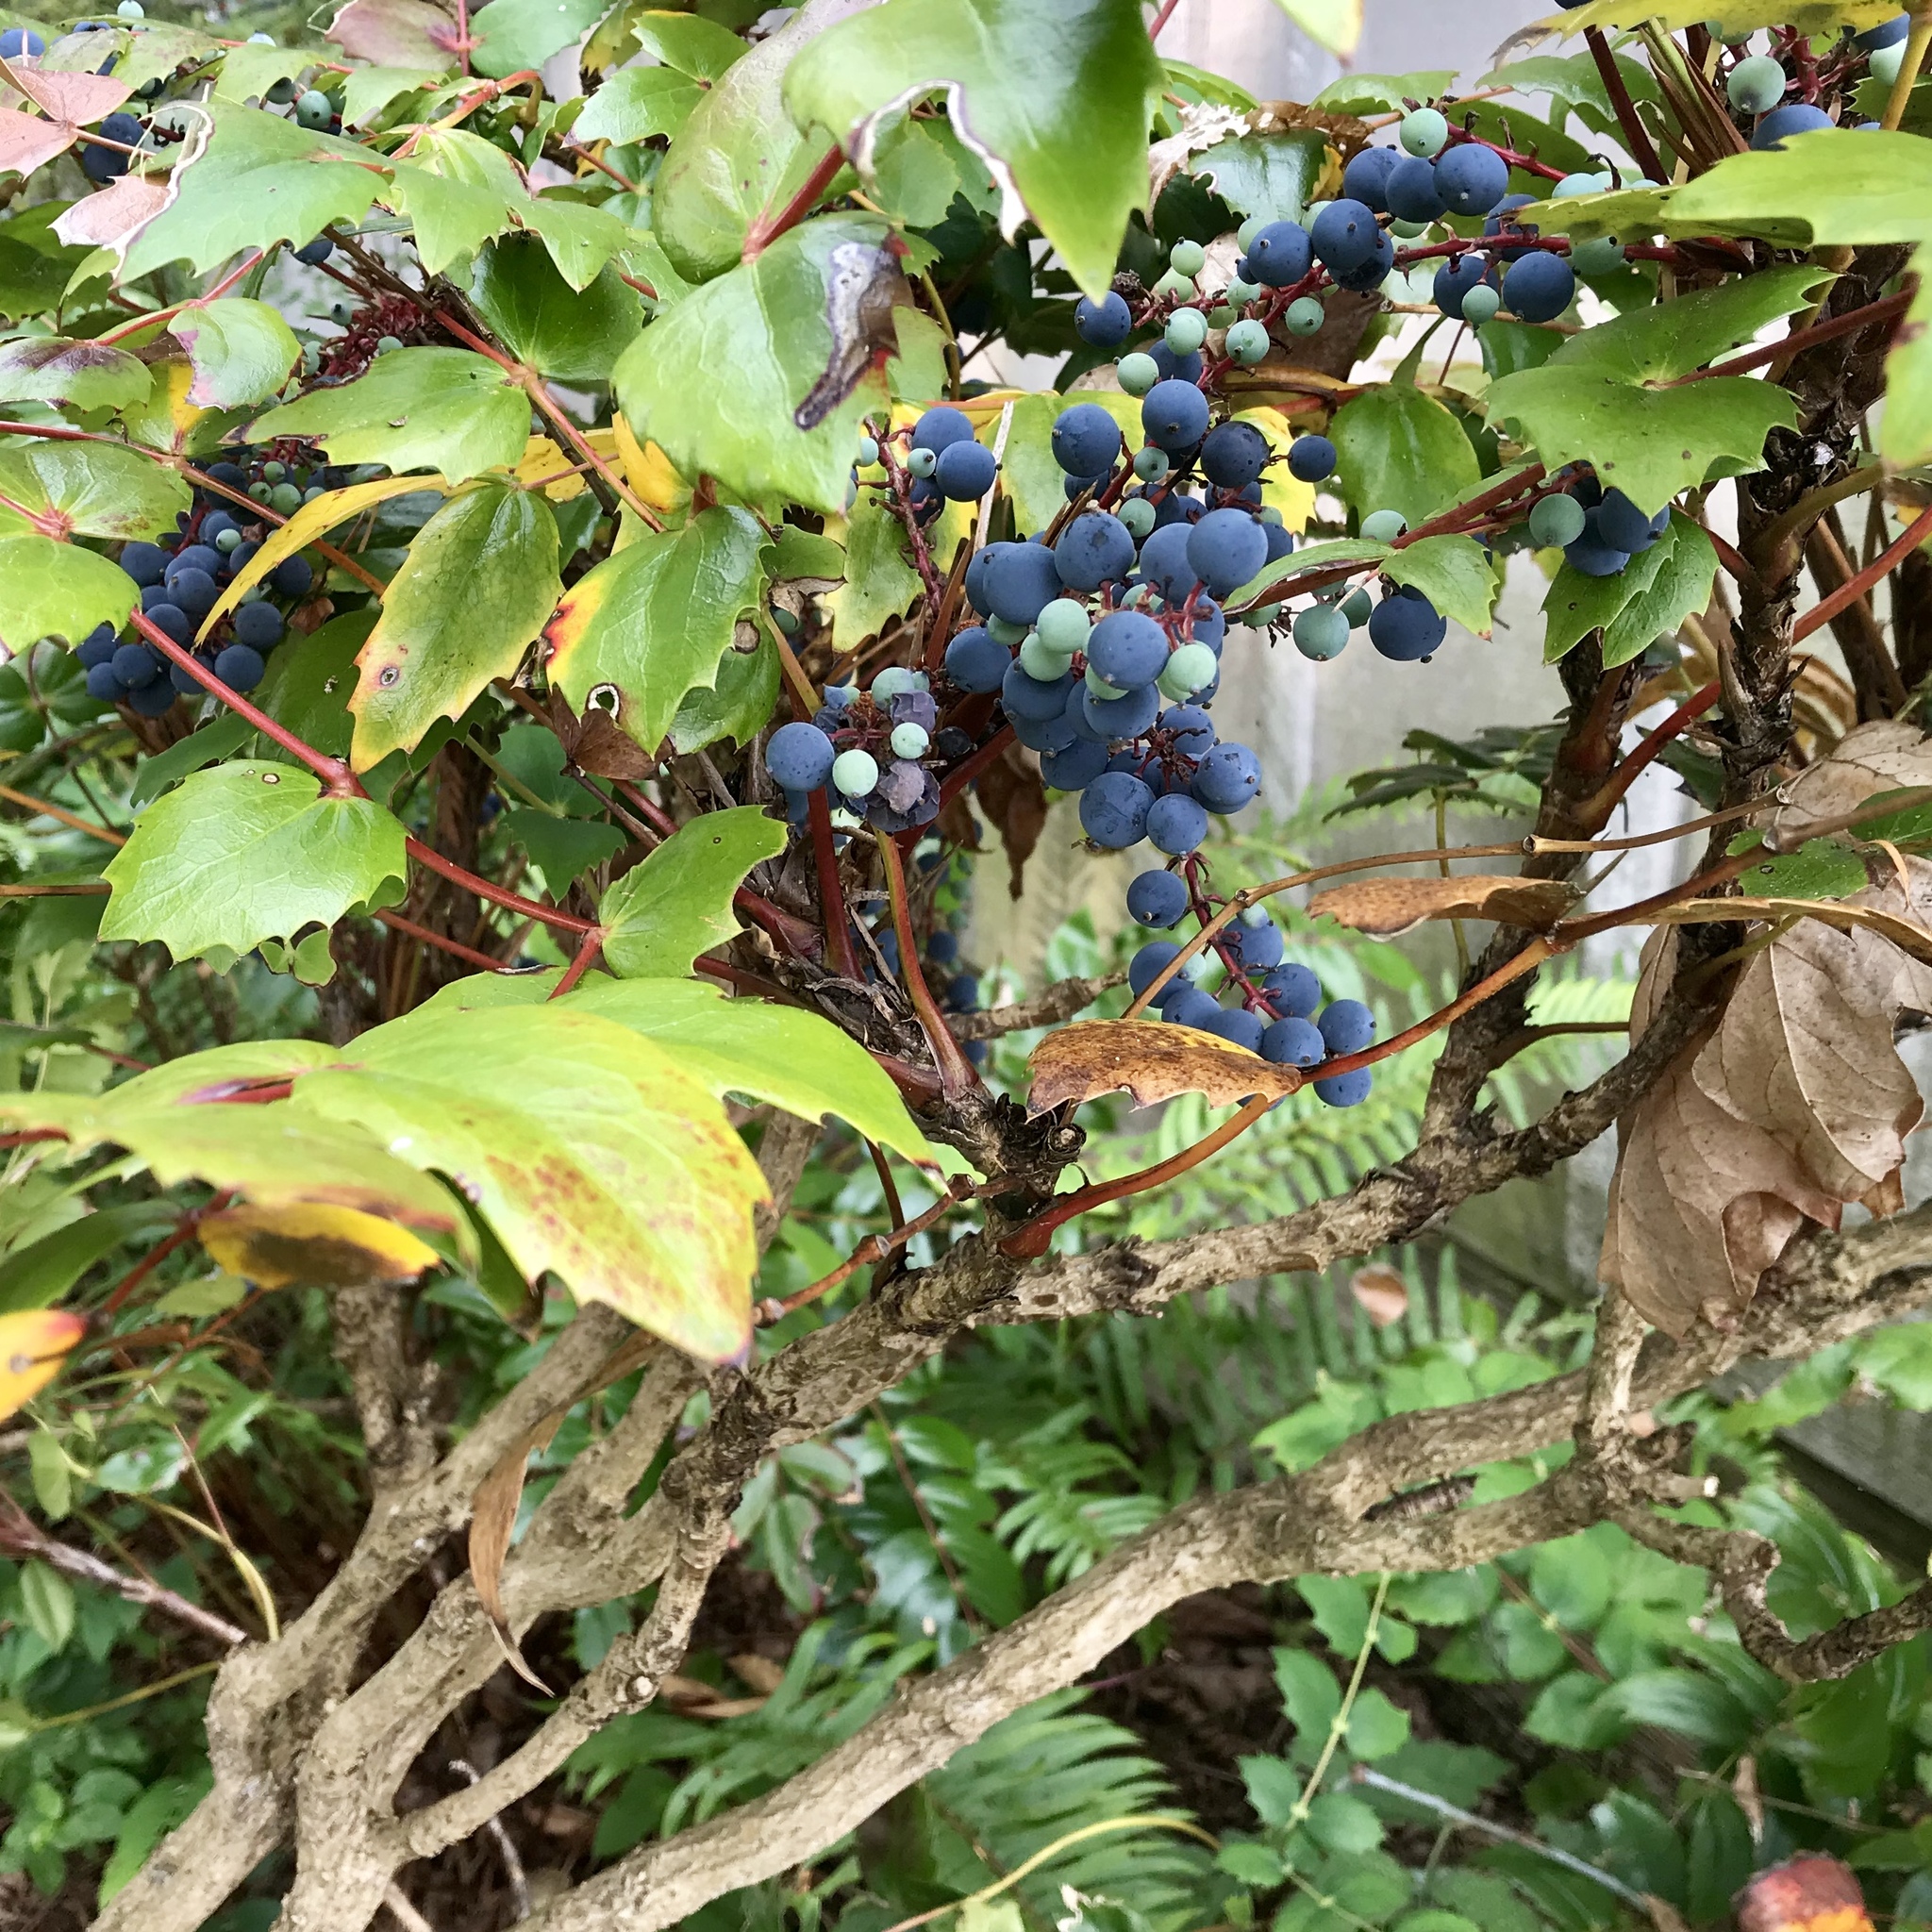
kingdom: Plantae
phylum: Tracheophyta
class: Magnoliopsida
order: Ranunculales
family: Berberidaceae
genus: Mahonia
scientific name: Mahonia nervosa
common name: Cascade oregon-grape
